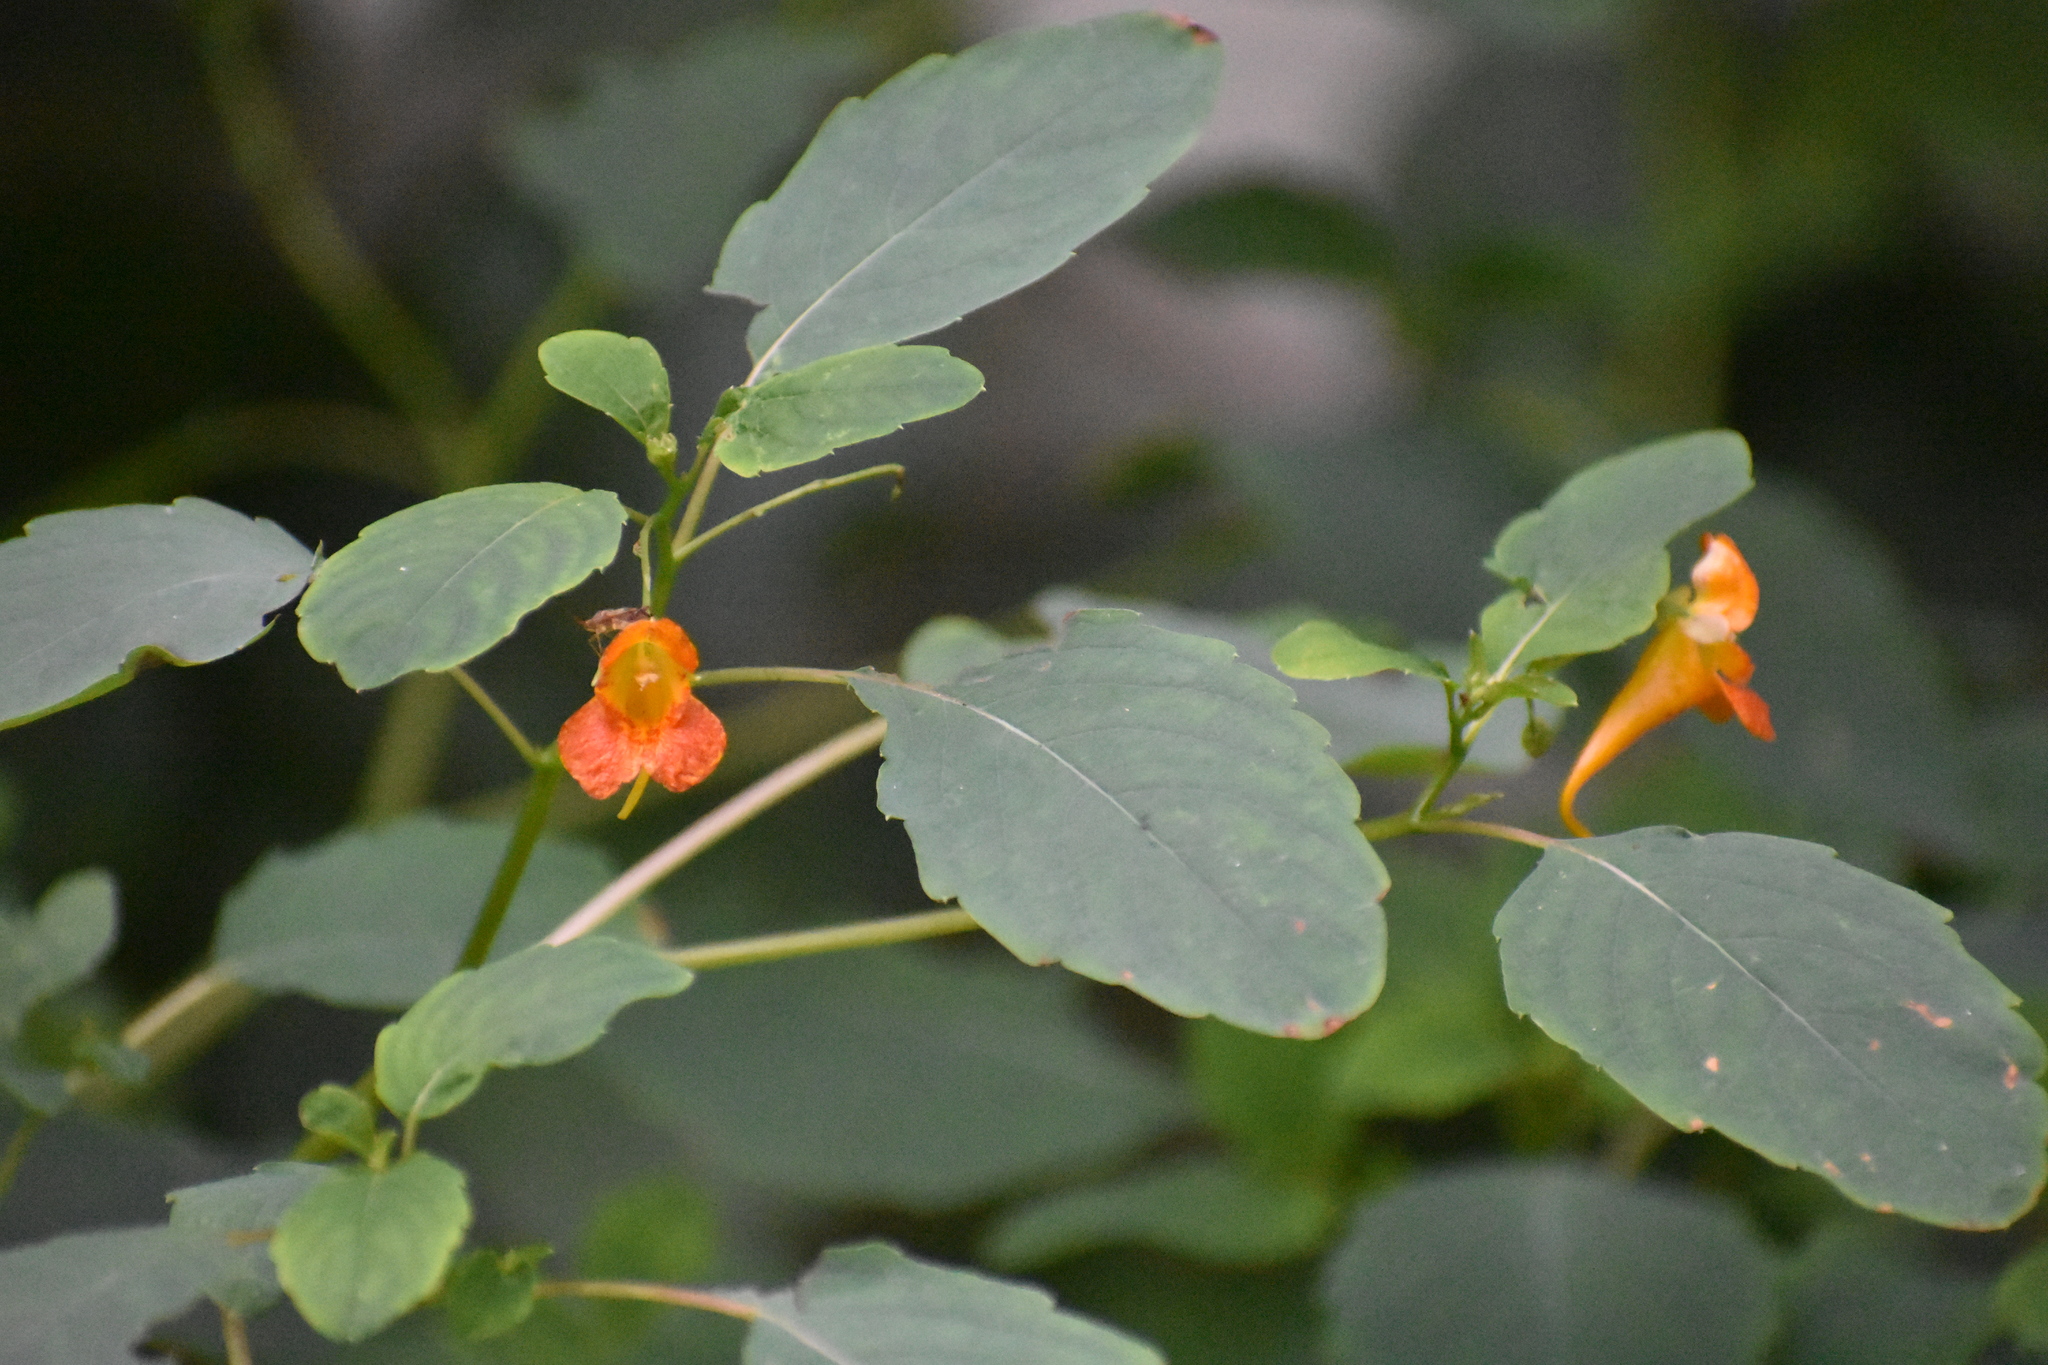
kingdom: Plantae
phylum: Tracheophyta
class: Magnoliopsida
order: Ericales
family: Balsaminaceae
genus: Impatiens
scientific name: Impatiens capensis
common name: Orange balsam
